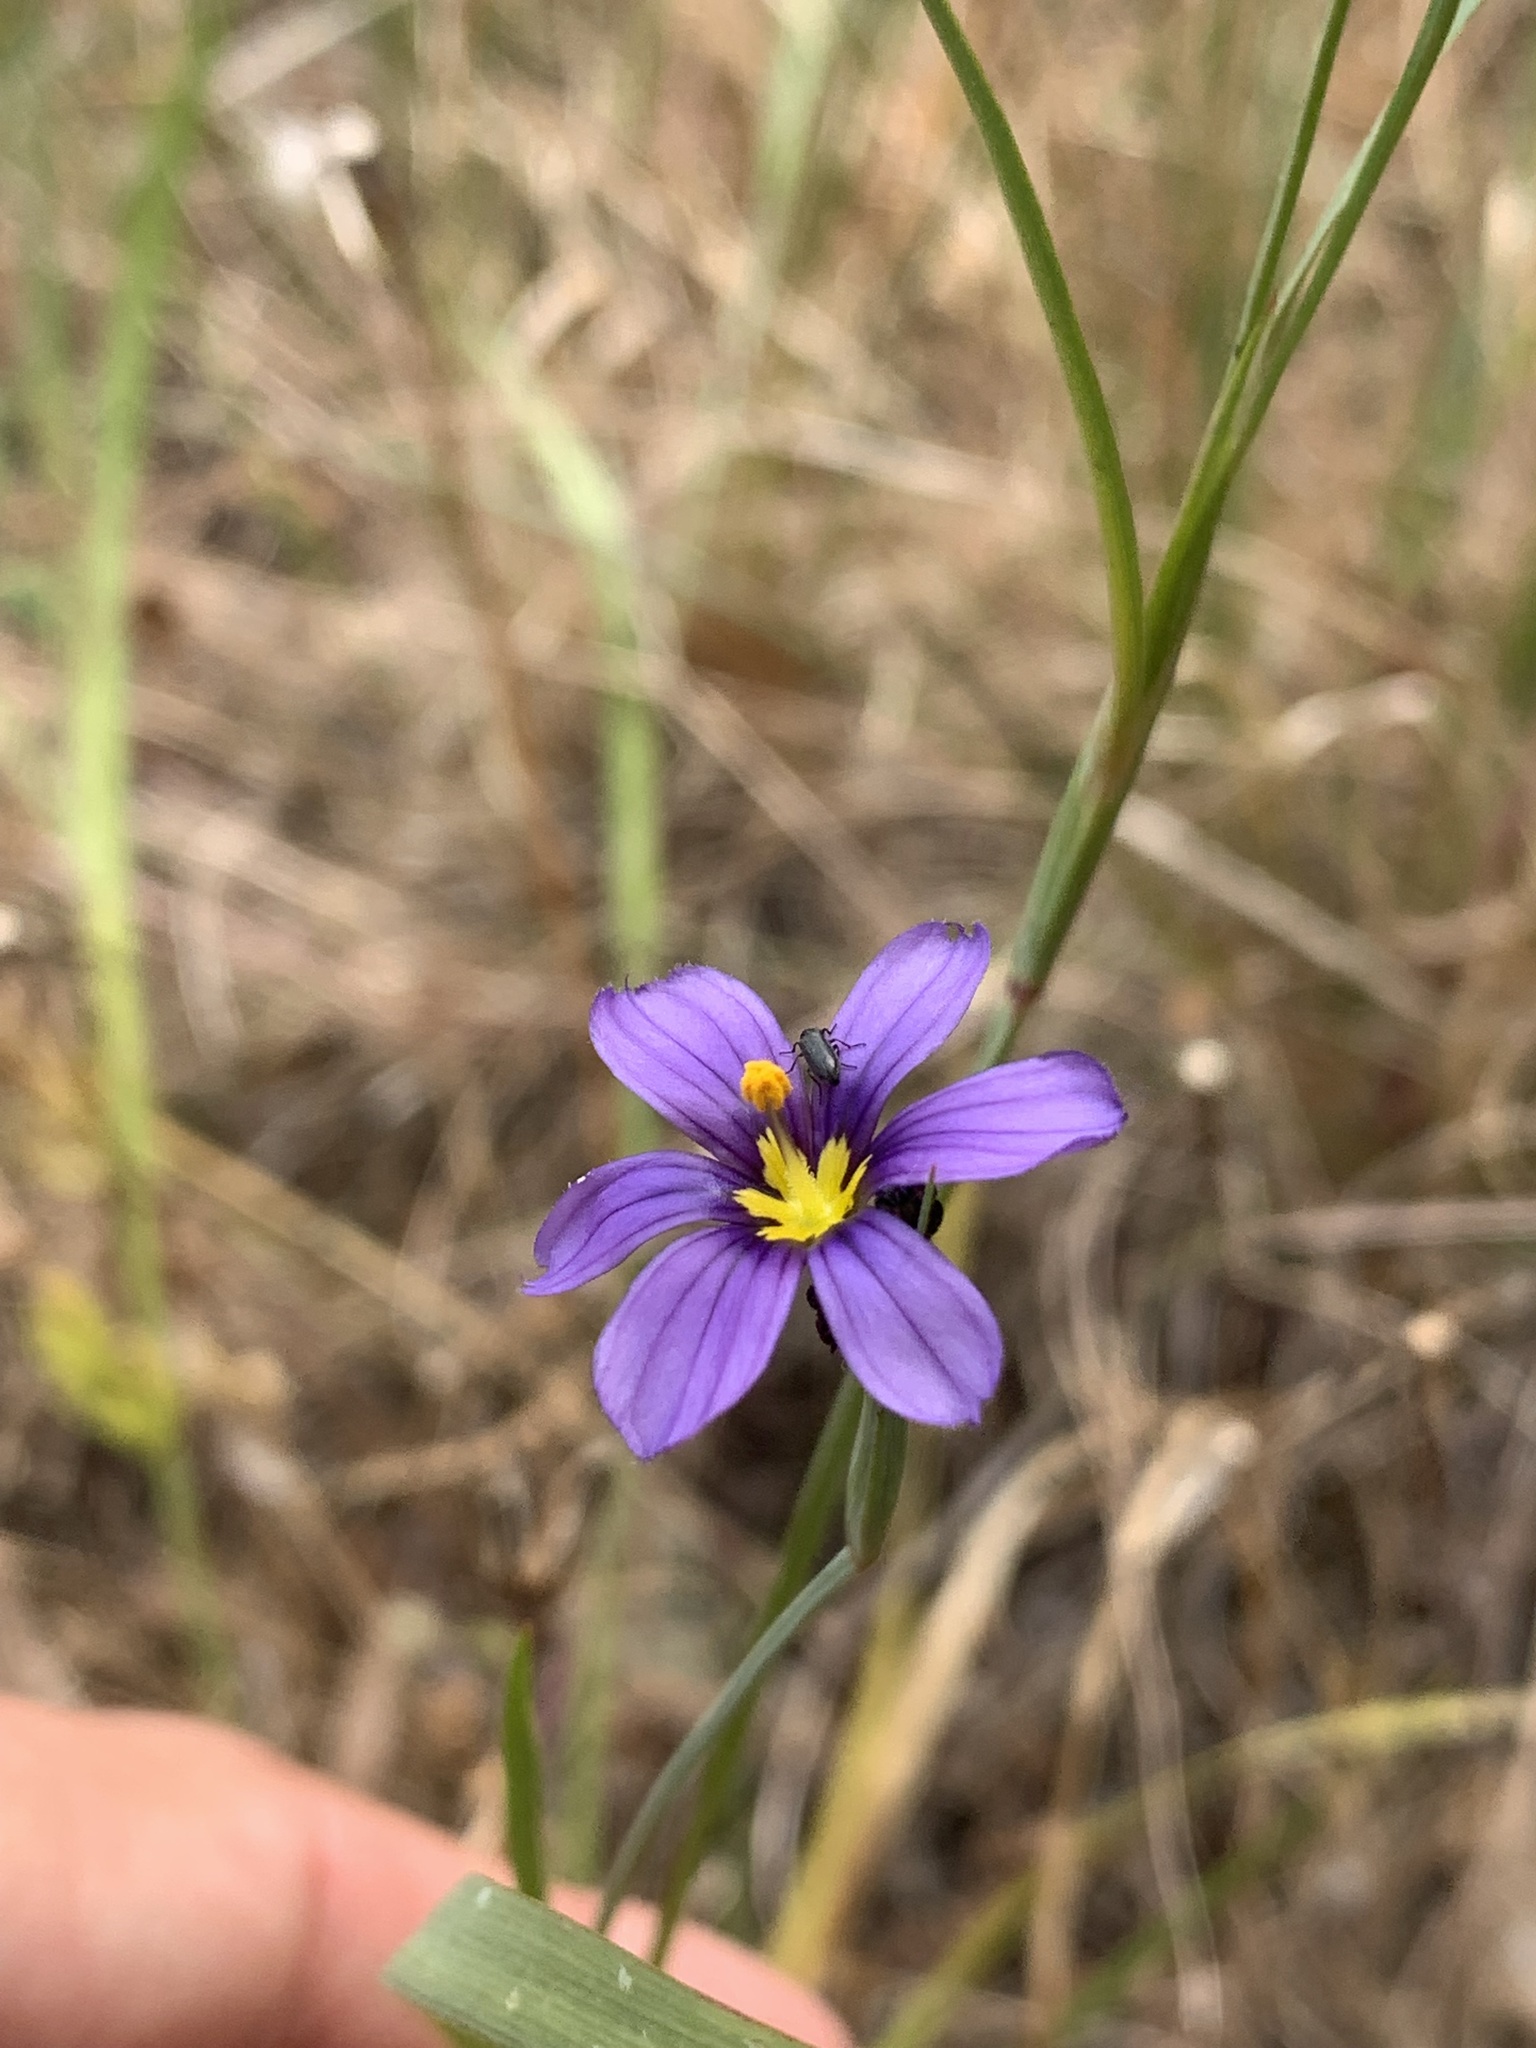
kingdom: Plantae
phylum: Tracheophyta
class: Liliopsida
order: Asparagales
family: Iridaceae
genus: Sisyrinchium
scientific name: Sisyrinchium bellum
